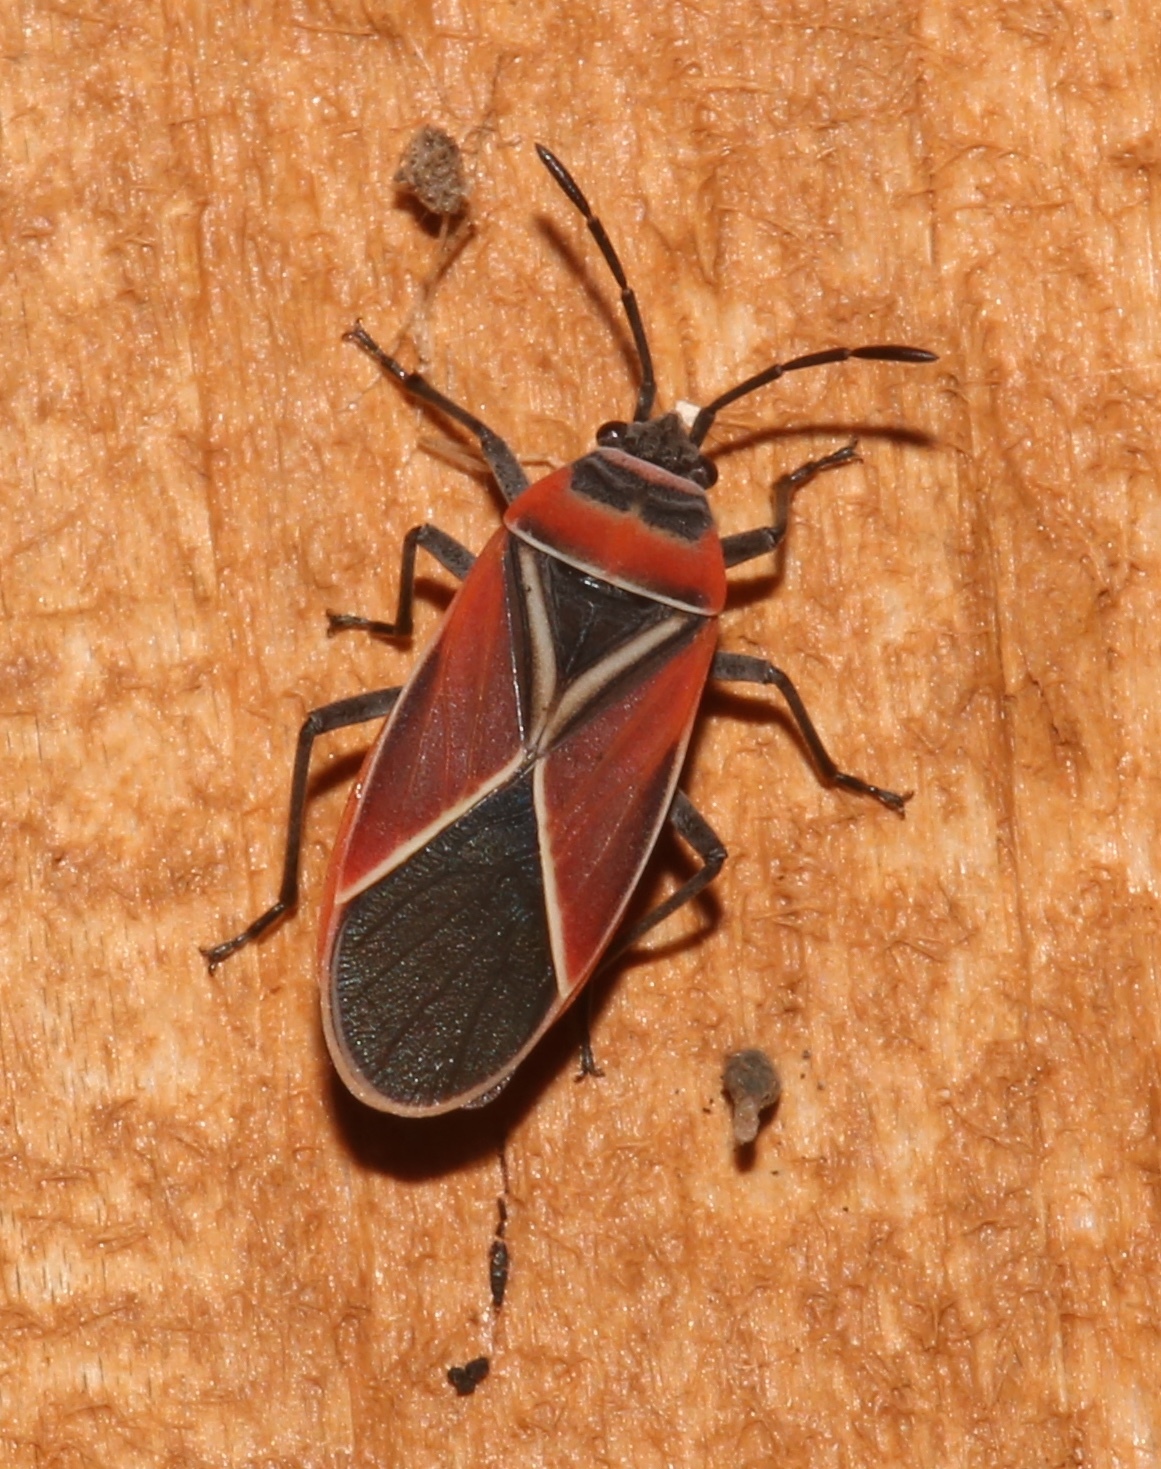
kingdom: Animalia
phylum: Arthropoda
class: Insecta
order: Hemiptera
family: Lygaeidae
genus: Neacoryphus
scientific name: Neacoryphus bicrucis
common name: Lygaeid bug
